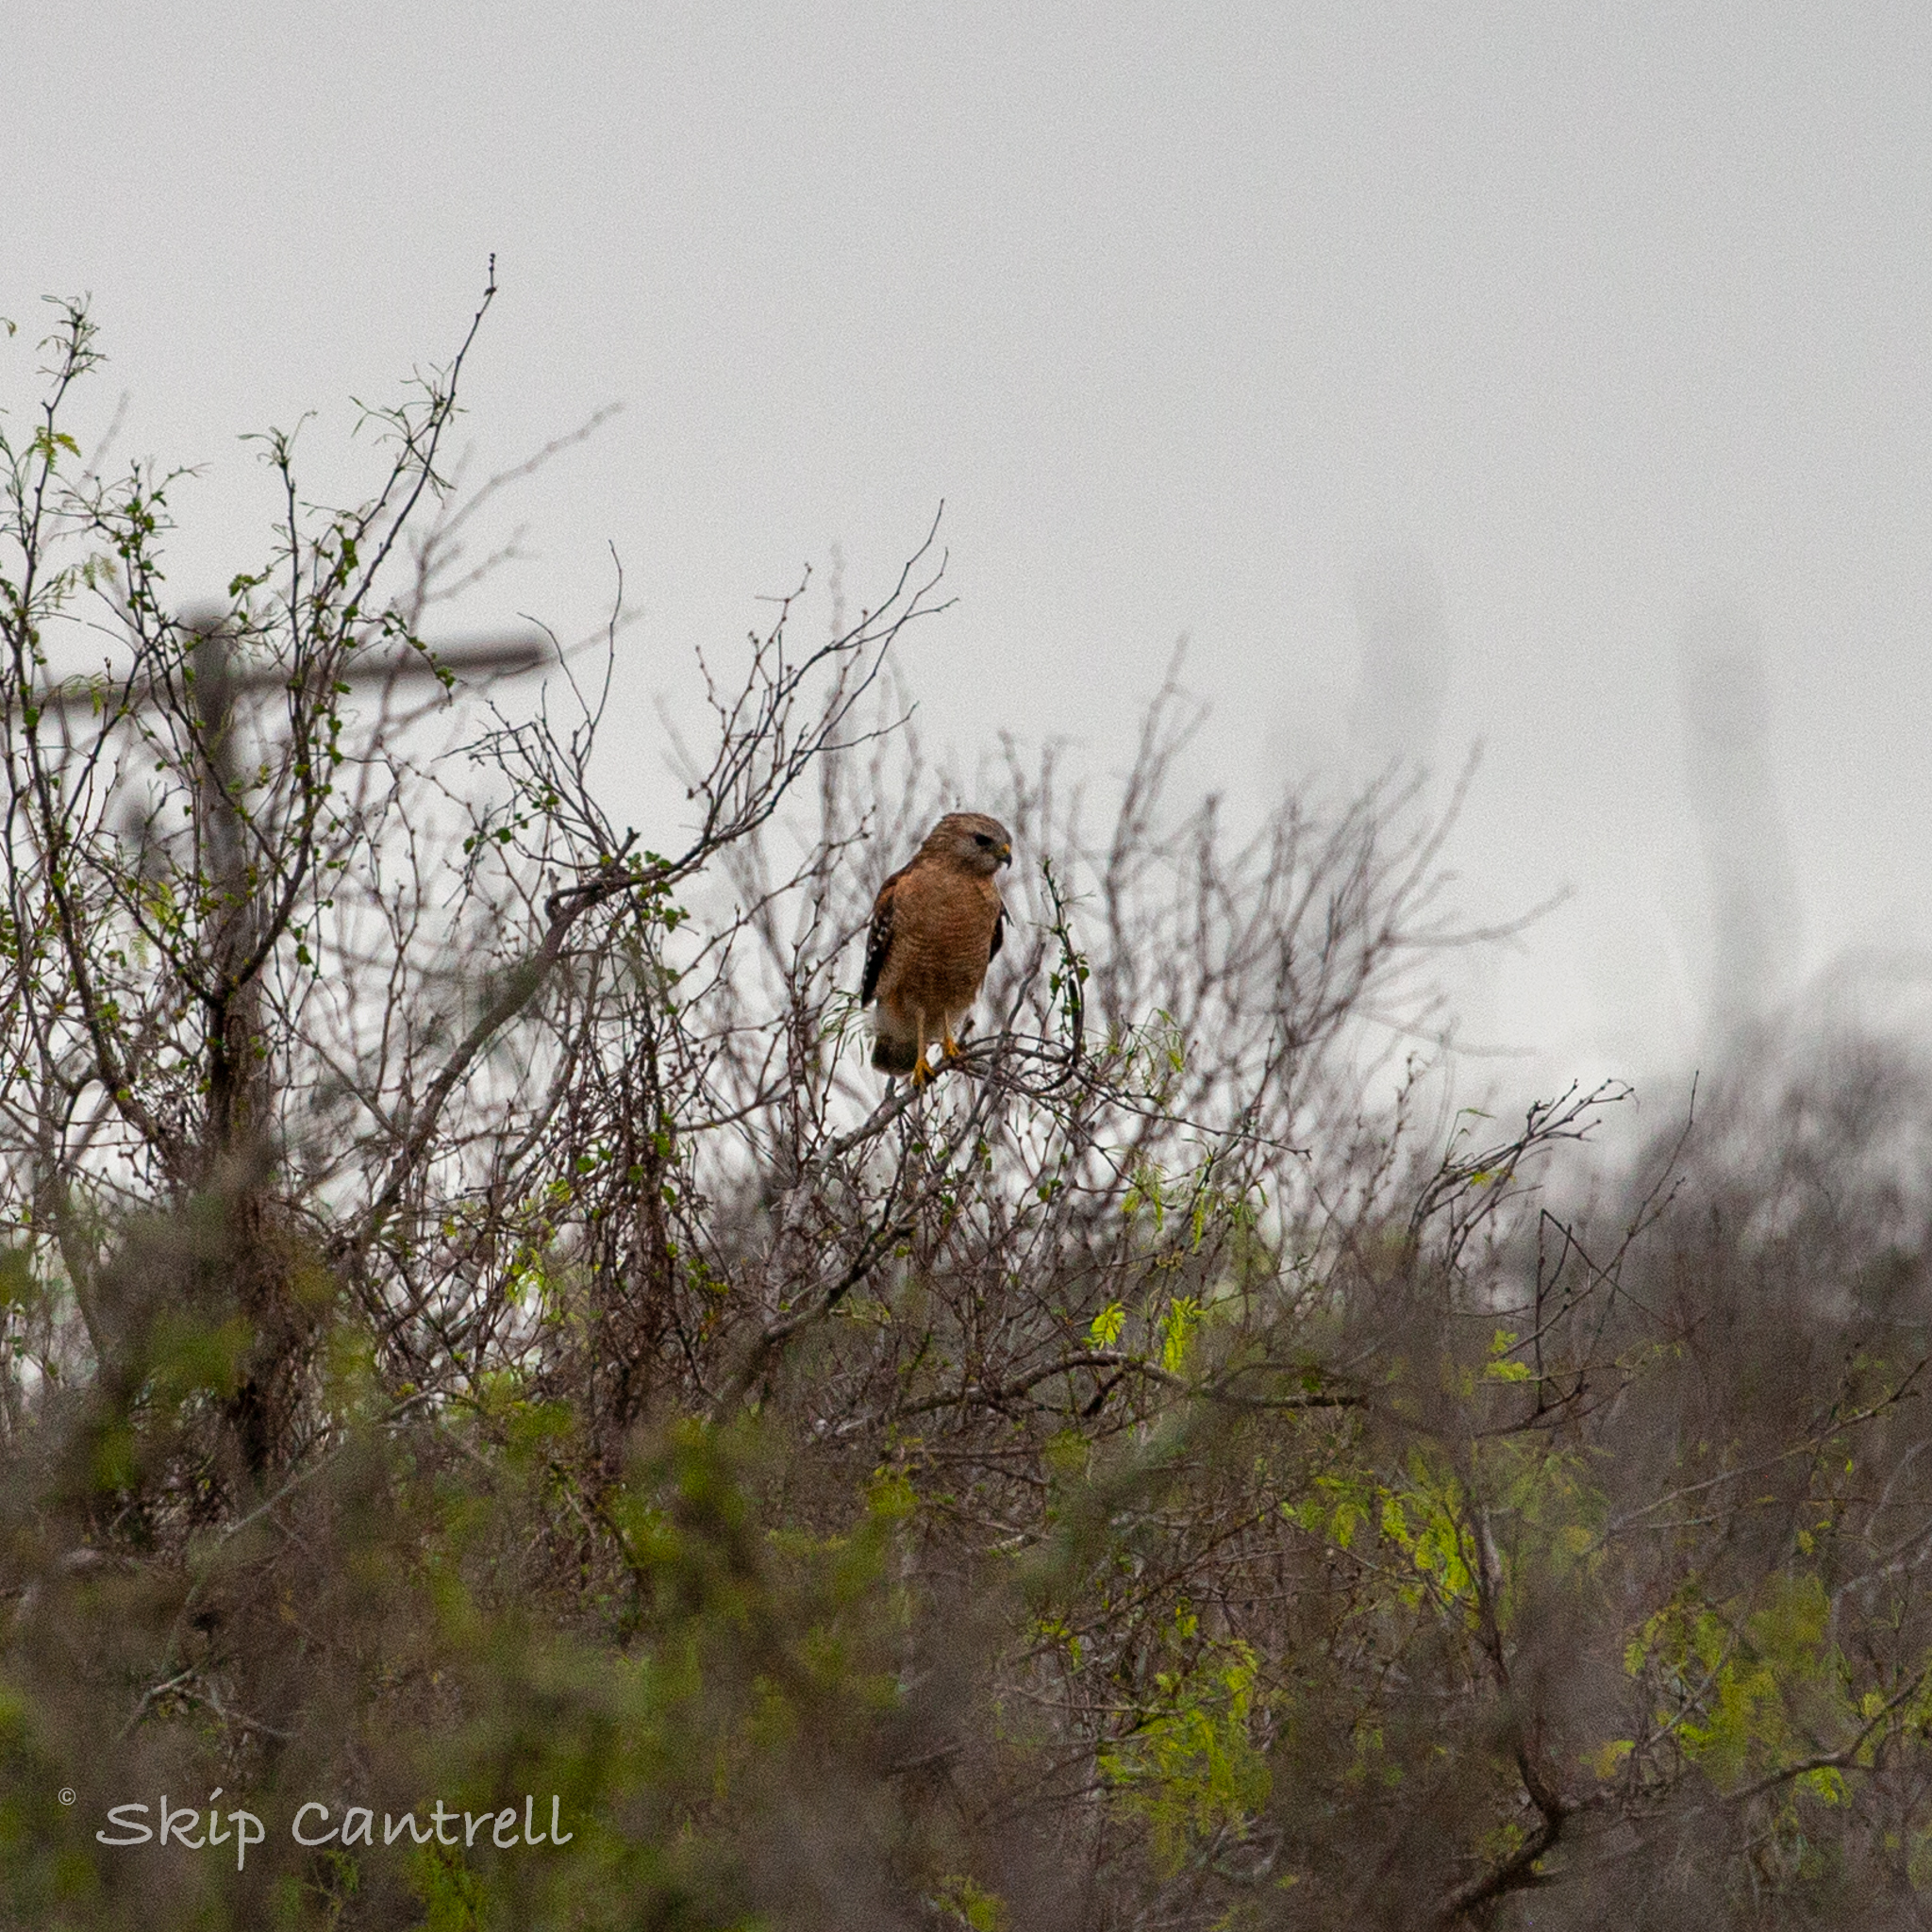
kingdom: Animalia
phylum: Chordata
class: Aves
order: Accipitriformes
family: Accipitridae
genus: Buteo
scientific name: Buteo lineatus
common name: Red-shouldered hawk
